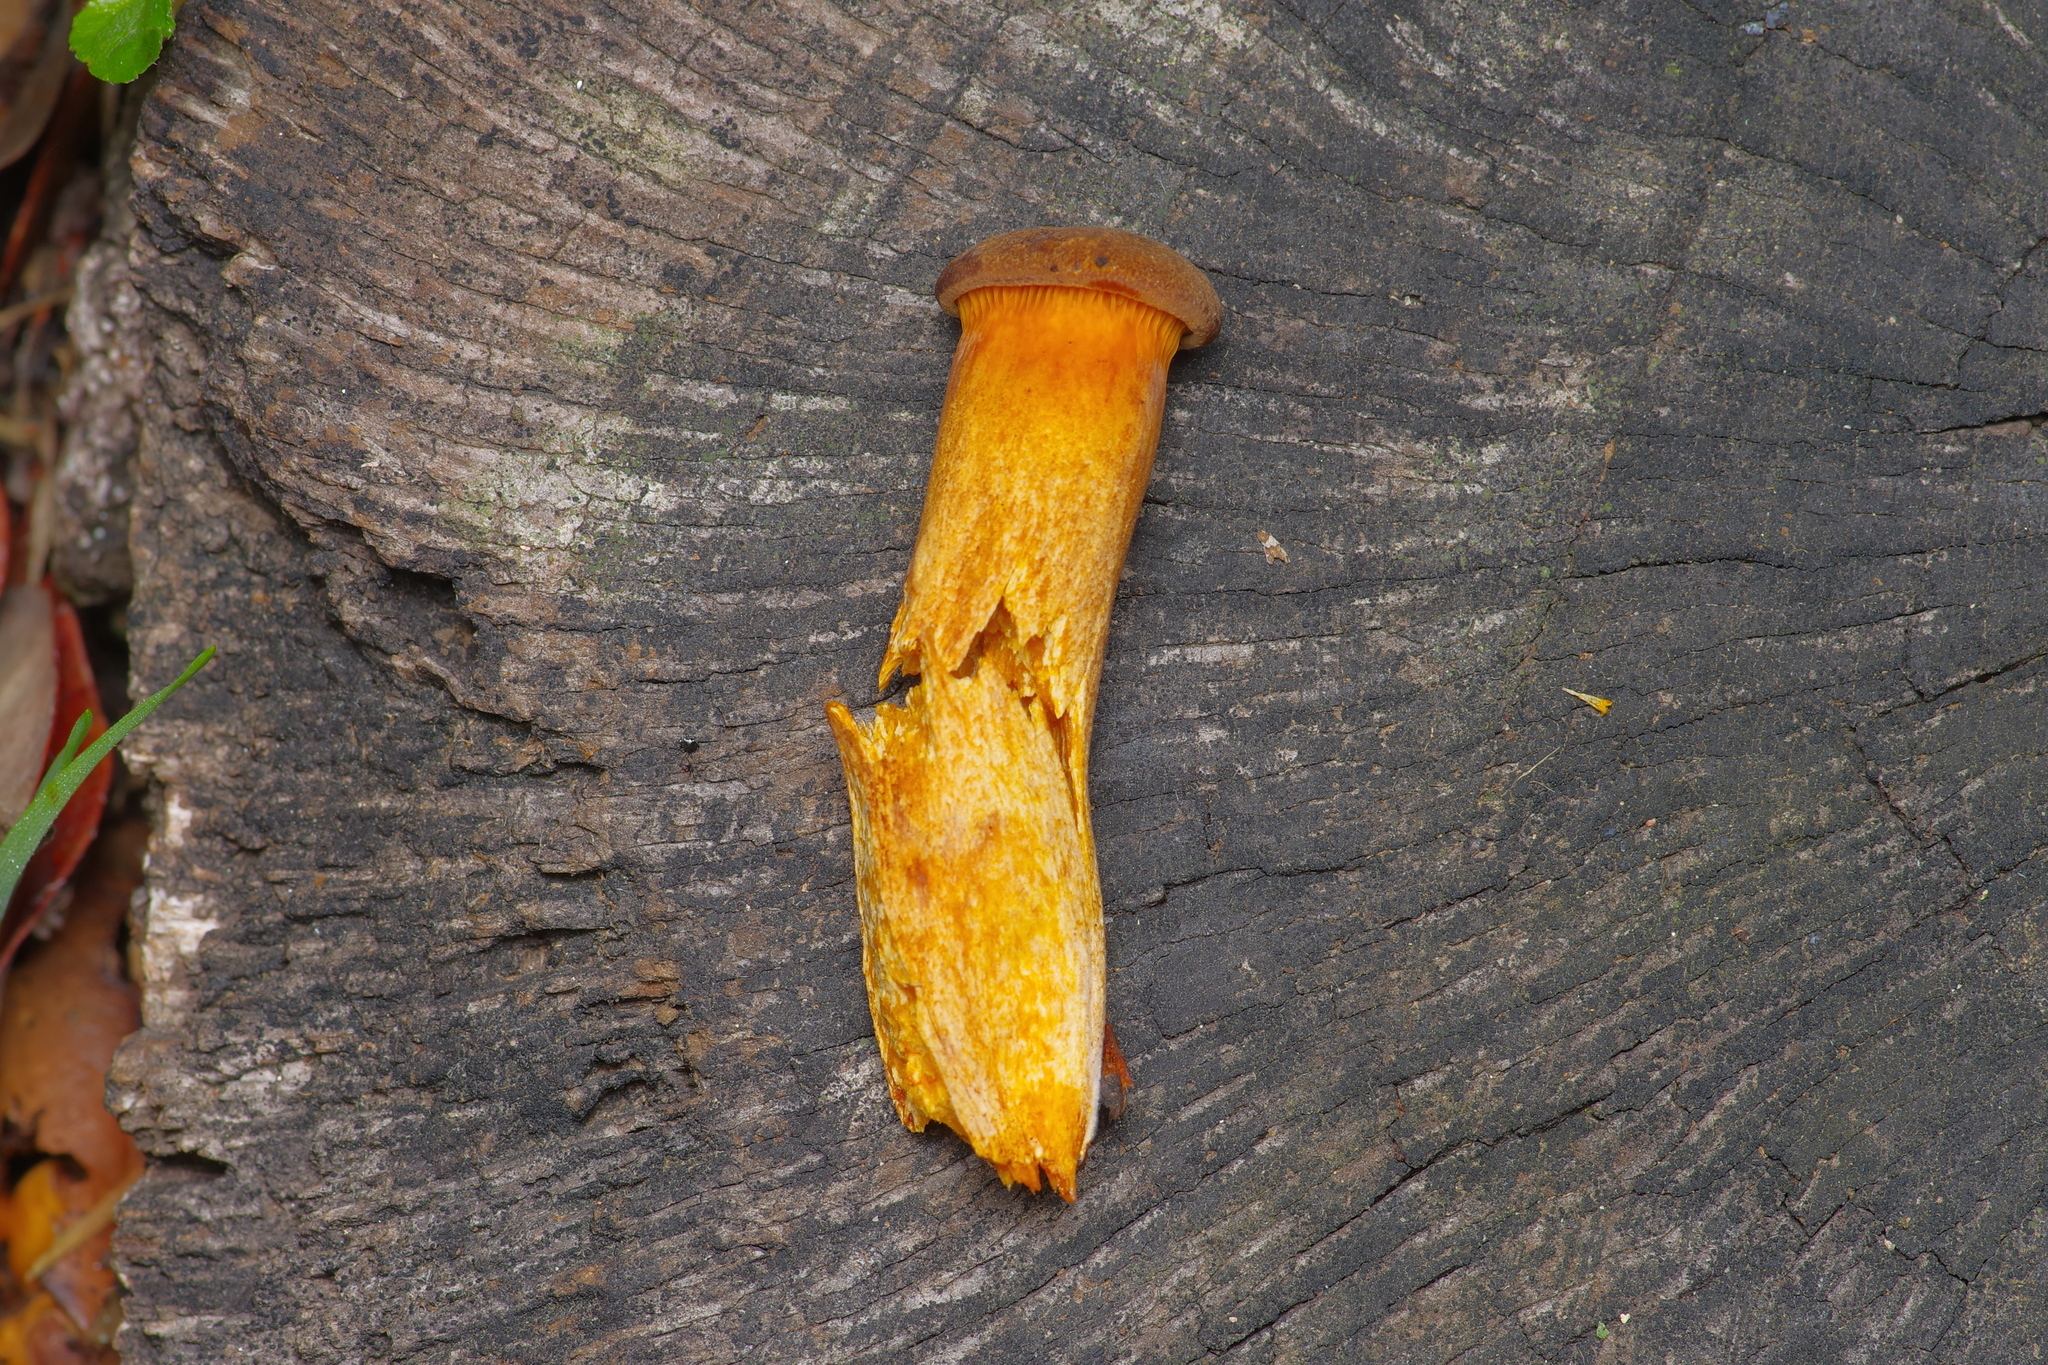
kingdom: Fungi
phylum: Basidiomycota
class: Agaricomycetes
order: Agaricales
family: Omphalotaceae
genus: Omphalotus
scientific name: Omphalotus subilludens
